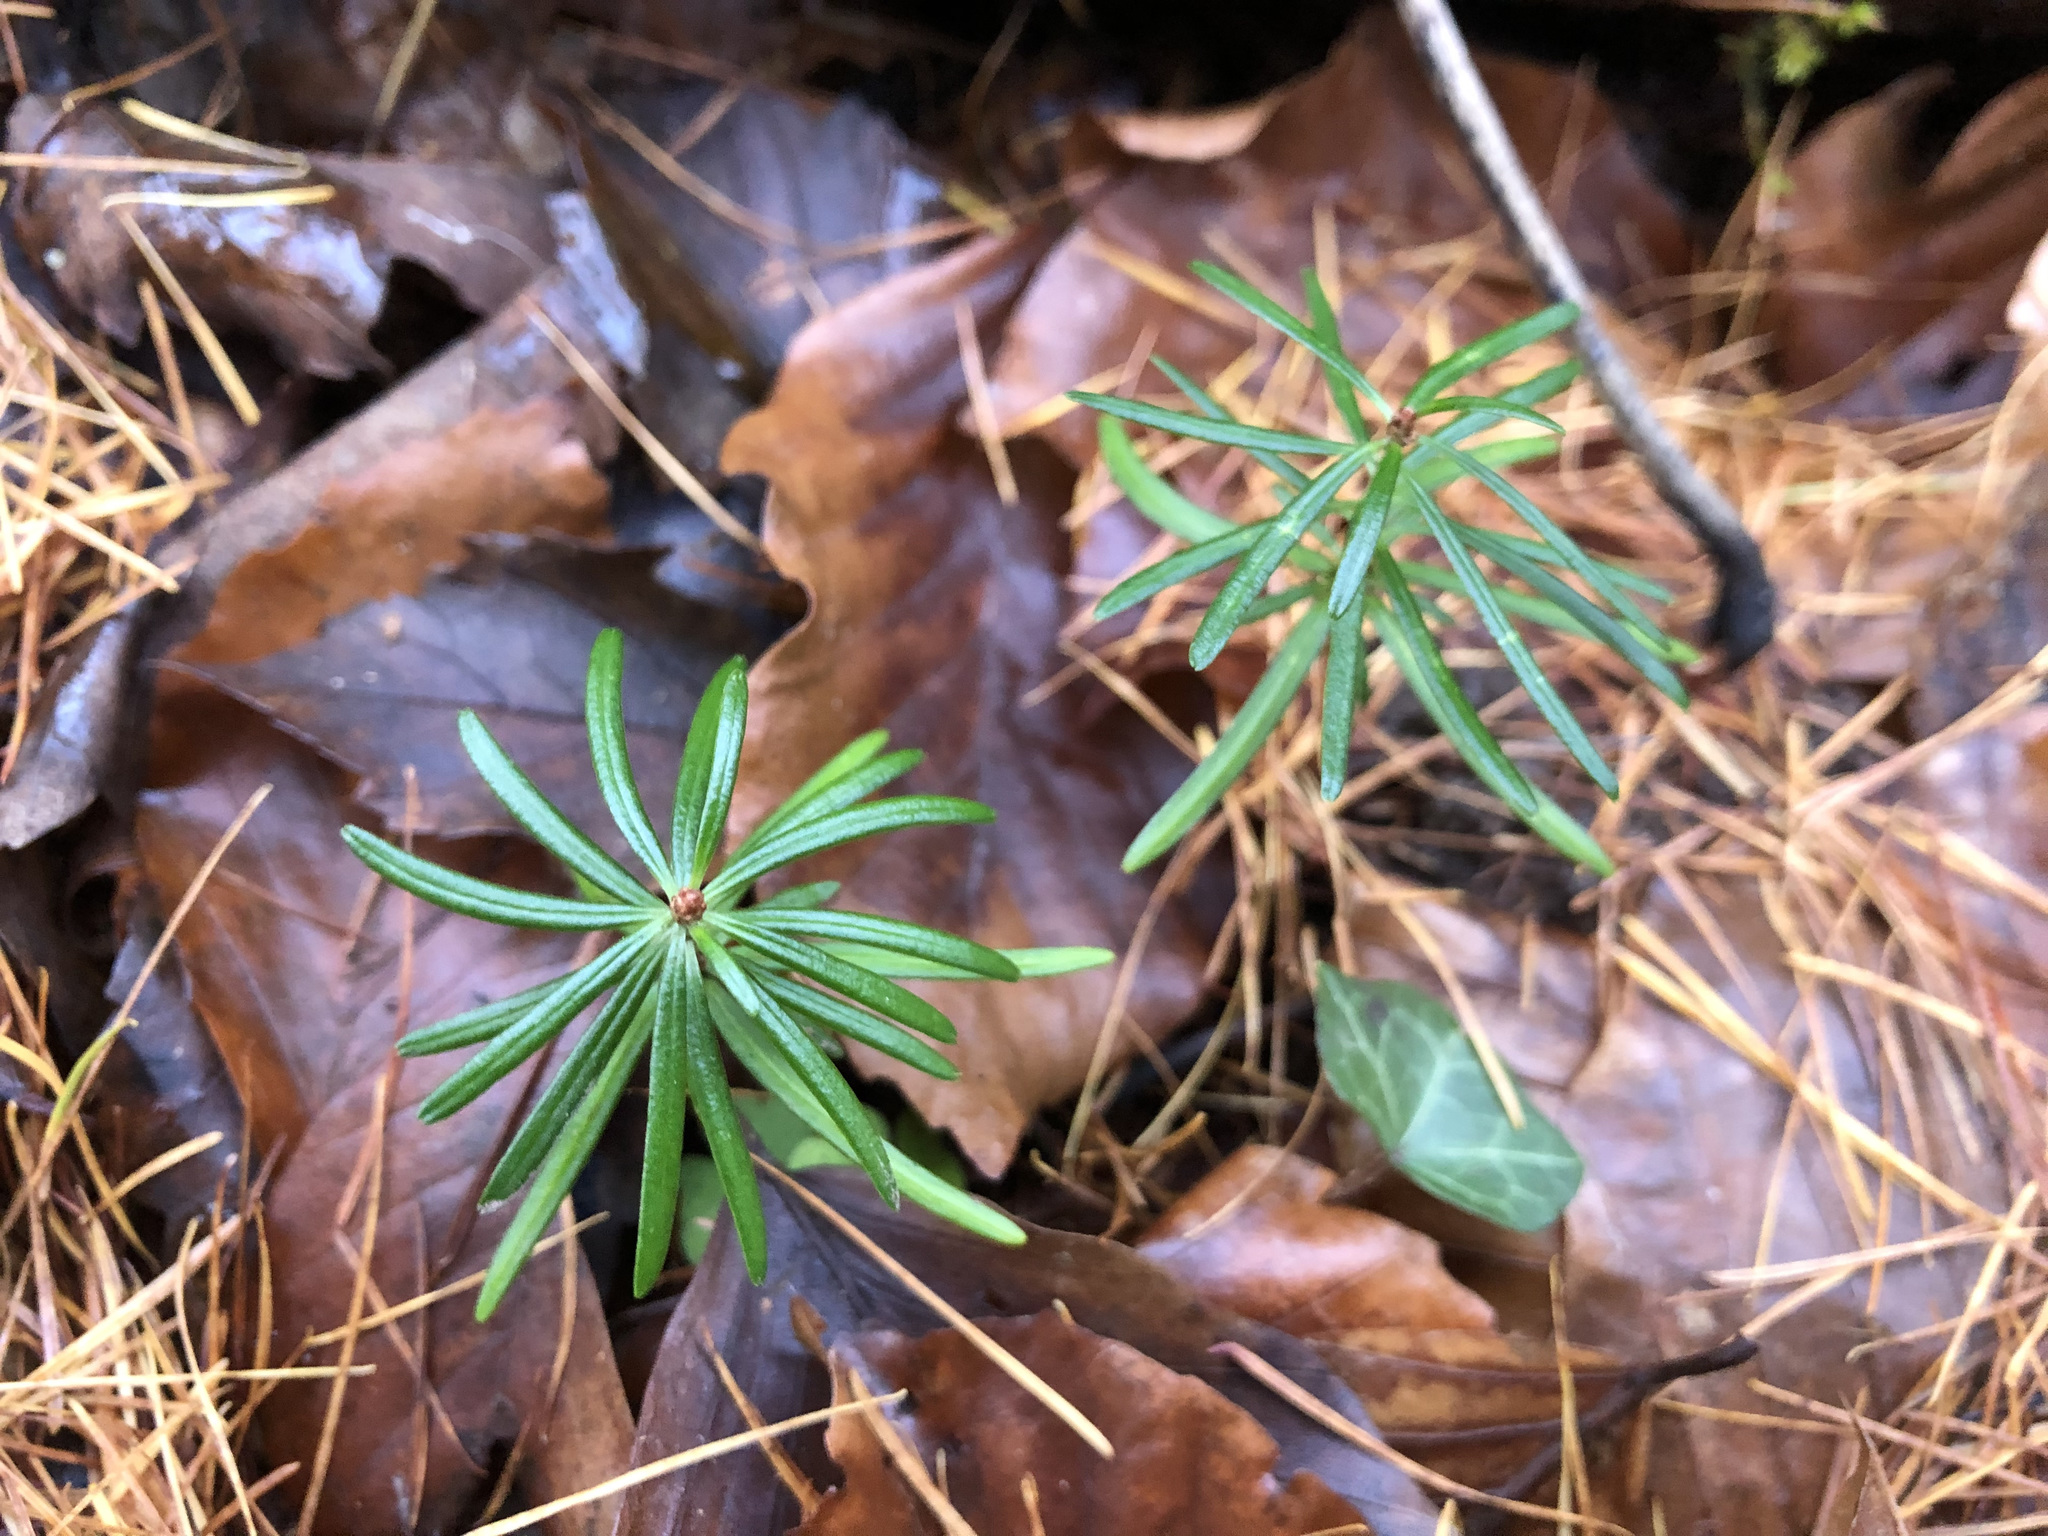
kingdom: Plantae
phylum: Tracheophyta
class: Pinopsida
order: Pinales
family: Pinaceae
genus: Abies
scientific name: Abies alba
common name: Silver fir
